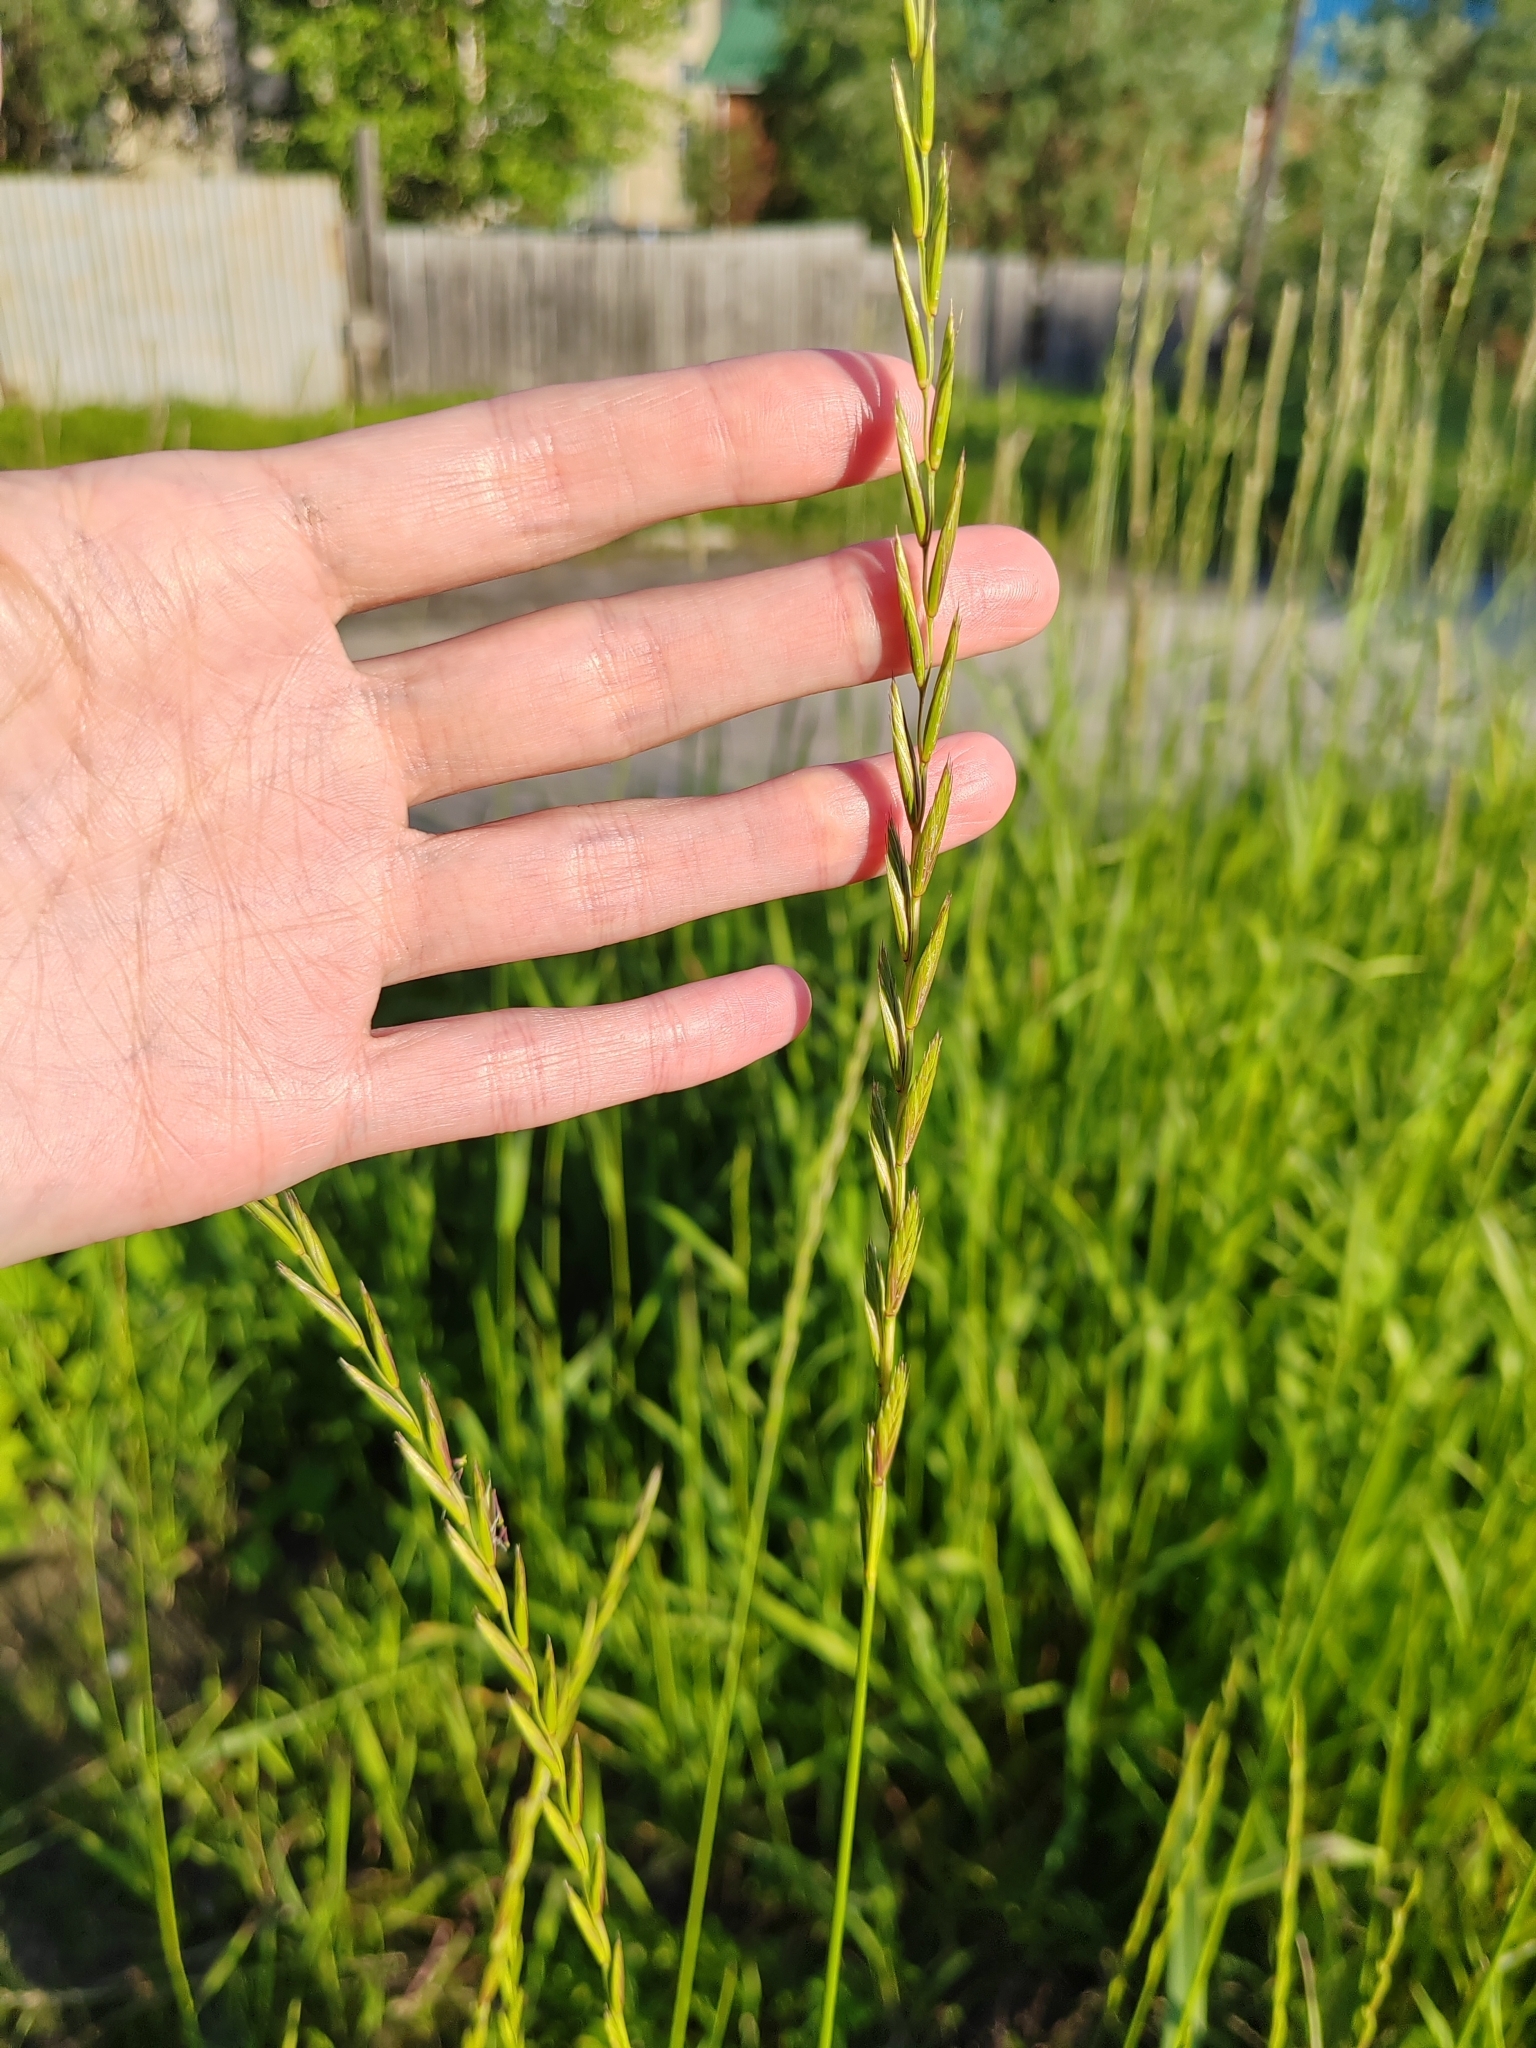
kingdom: Plantae
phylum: Tracheophyta
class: Liliopsida
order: Poales
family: Poaceae
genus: Lolium
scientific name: Lolium perenne
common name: Perennial ryegrass
